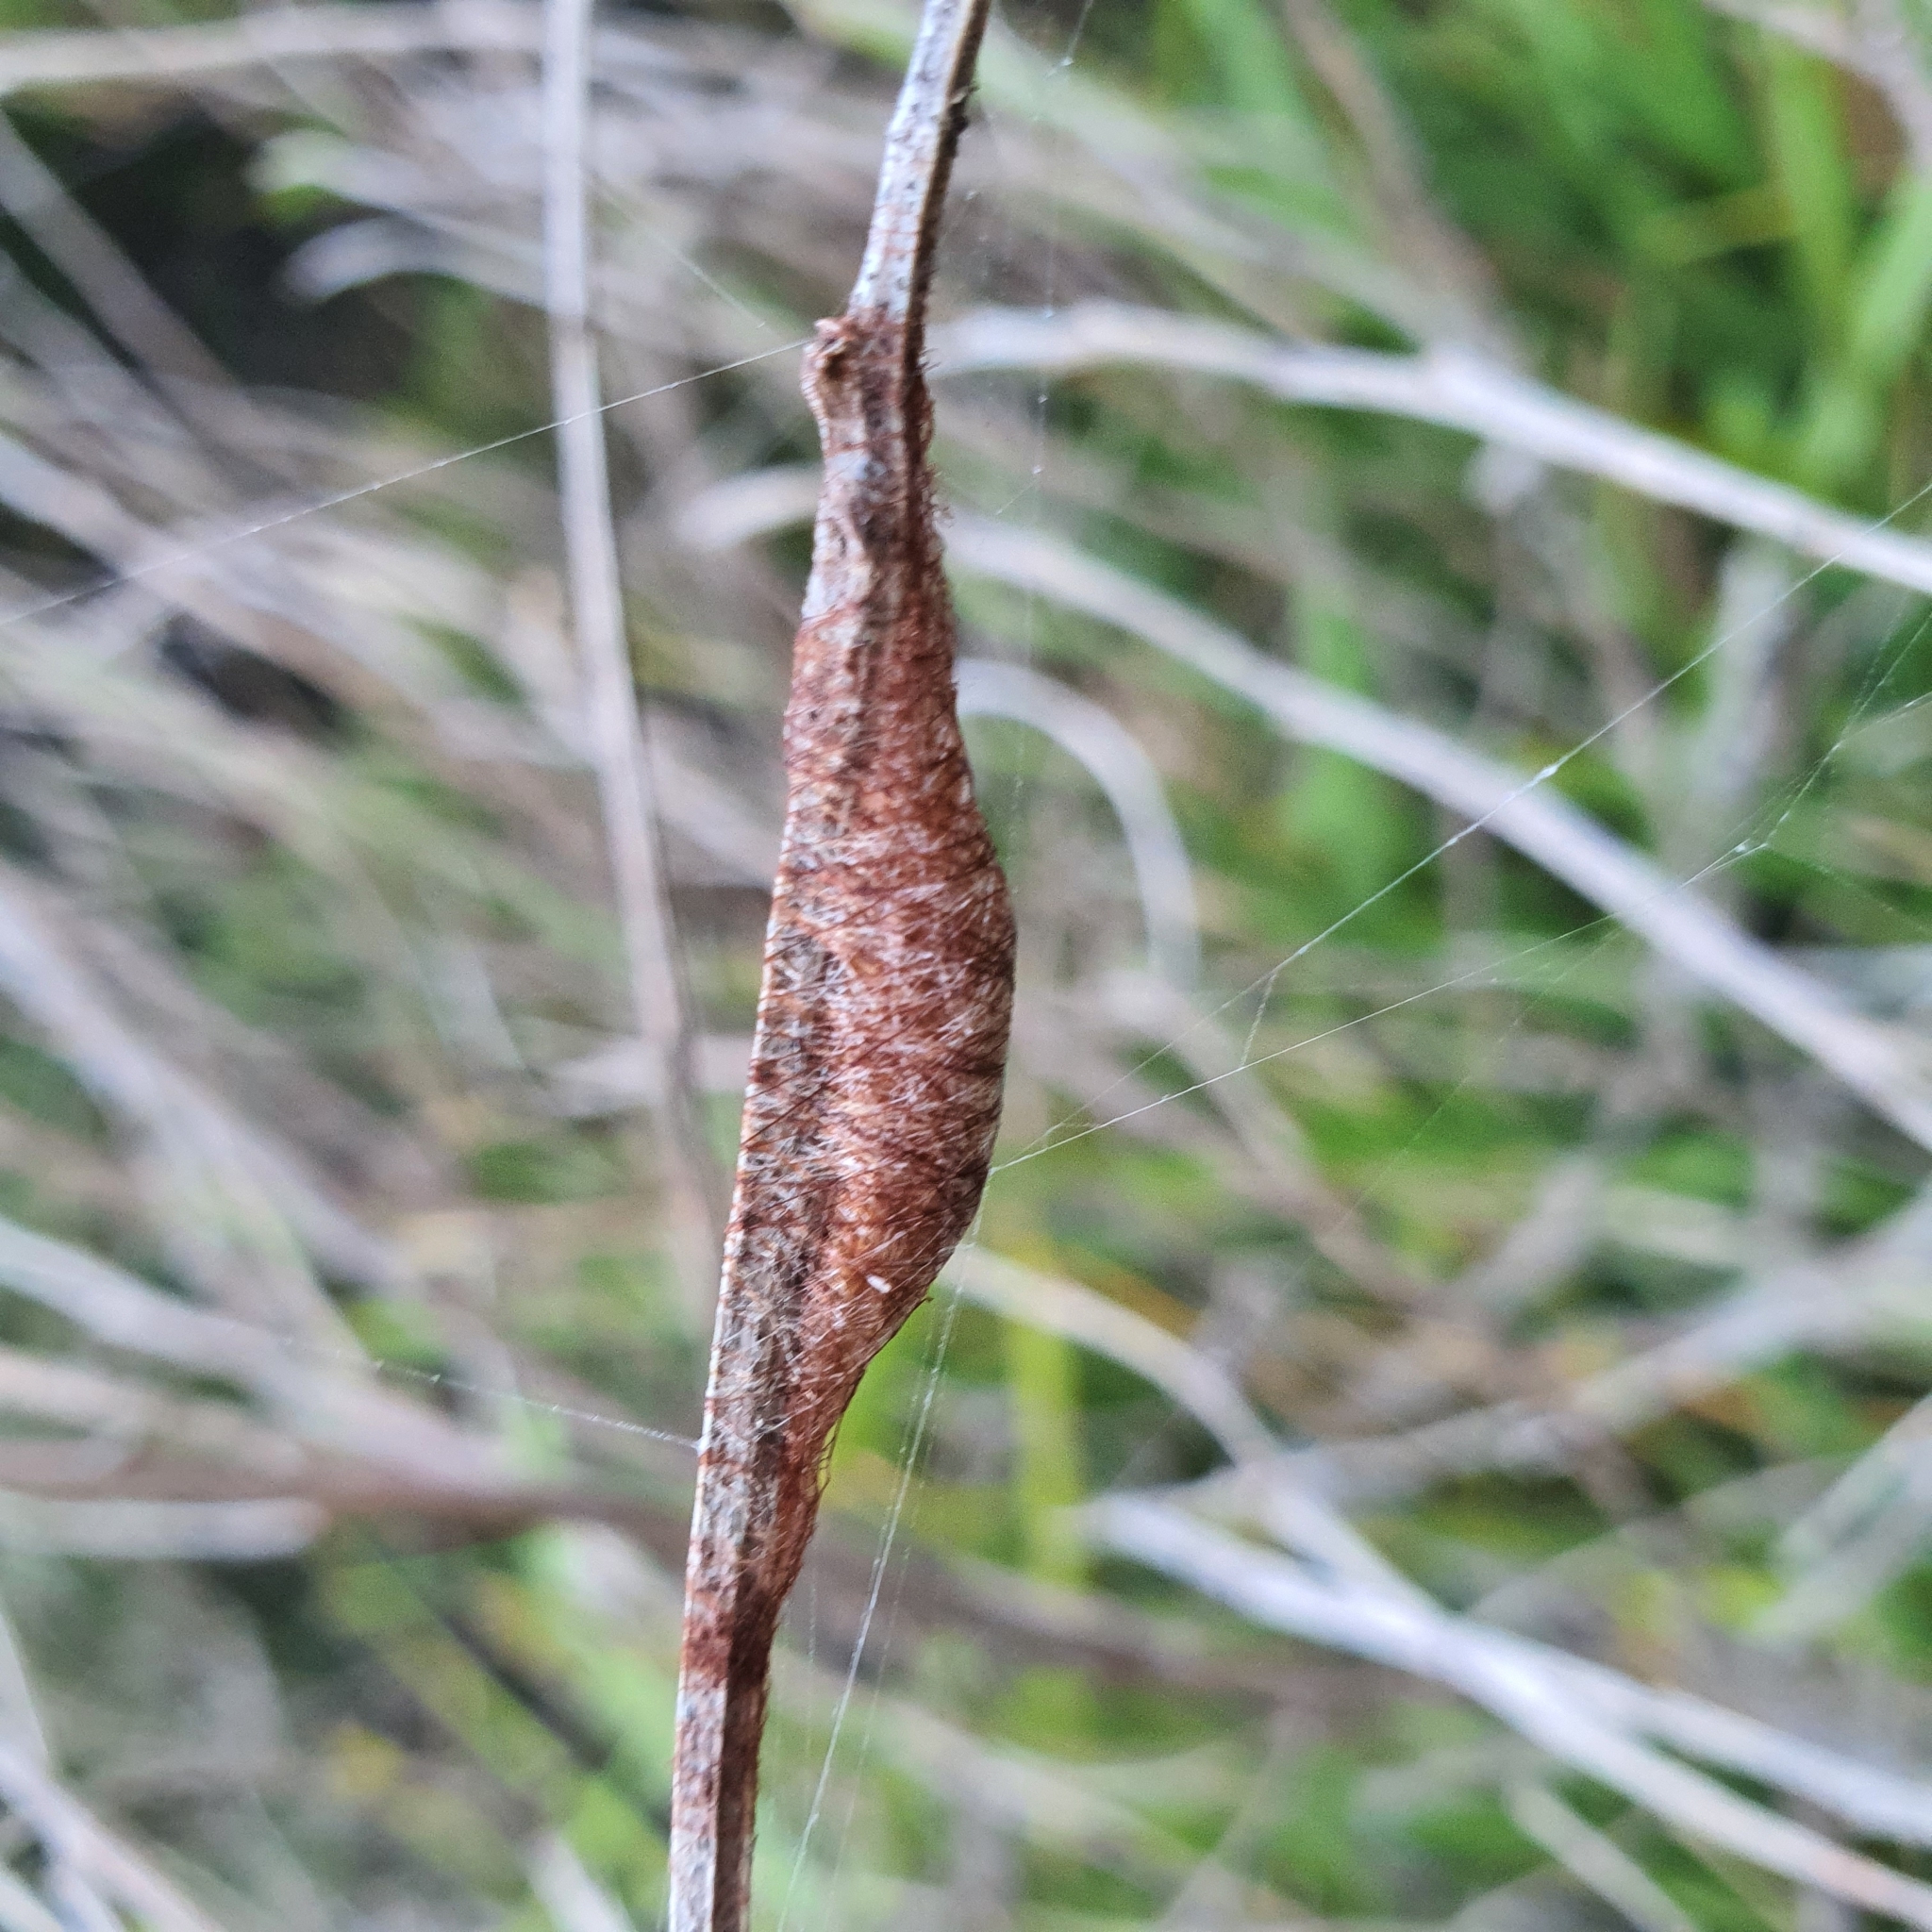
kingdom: Animalia
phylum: Arthropoda
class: Arachnida
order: Araneae
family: Araneidae
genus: Austracantha
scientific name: Austracantha minax
